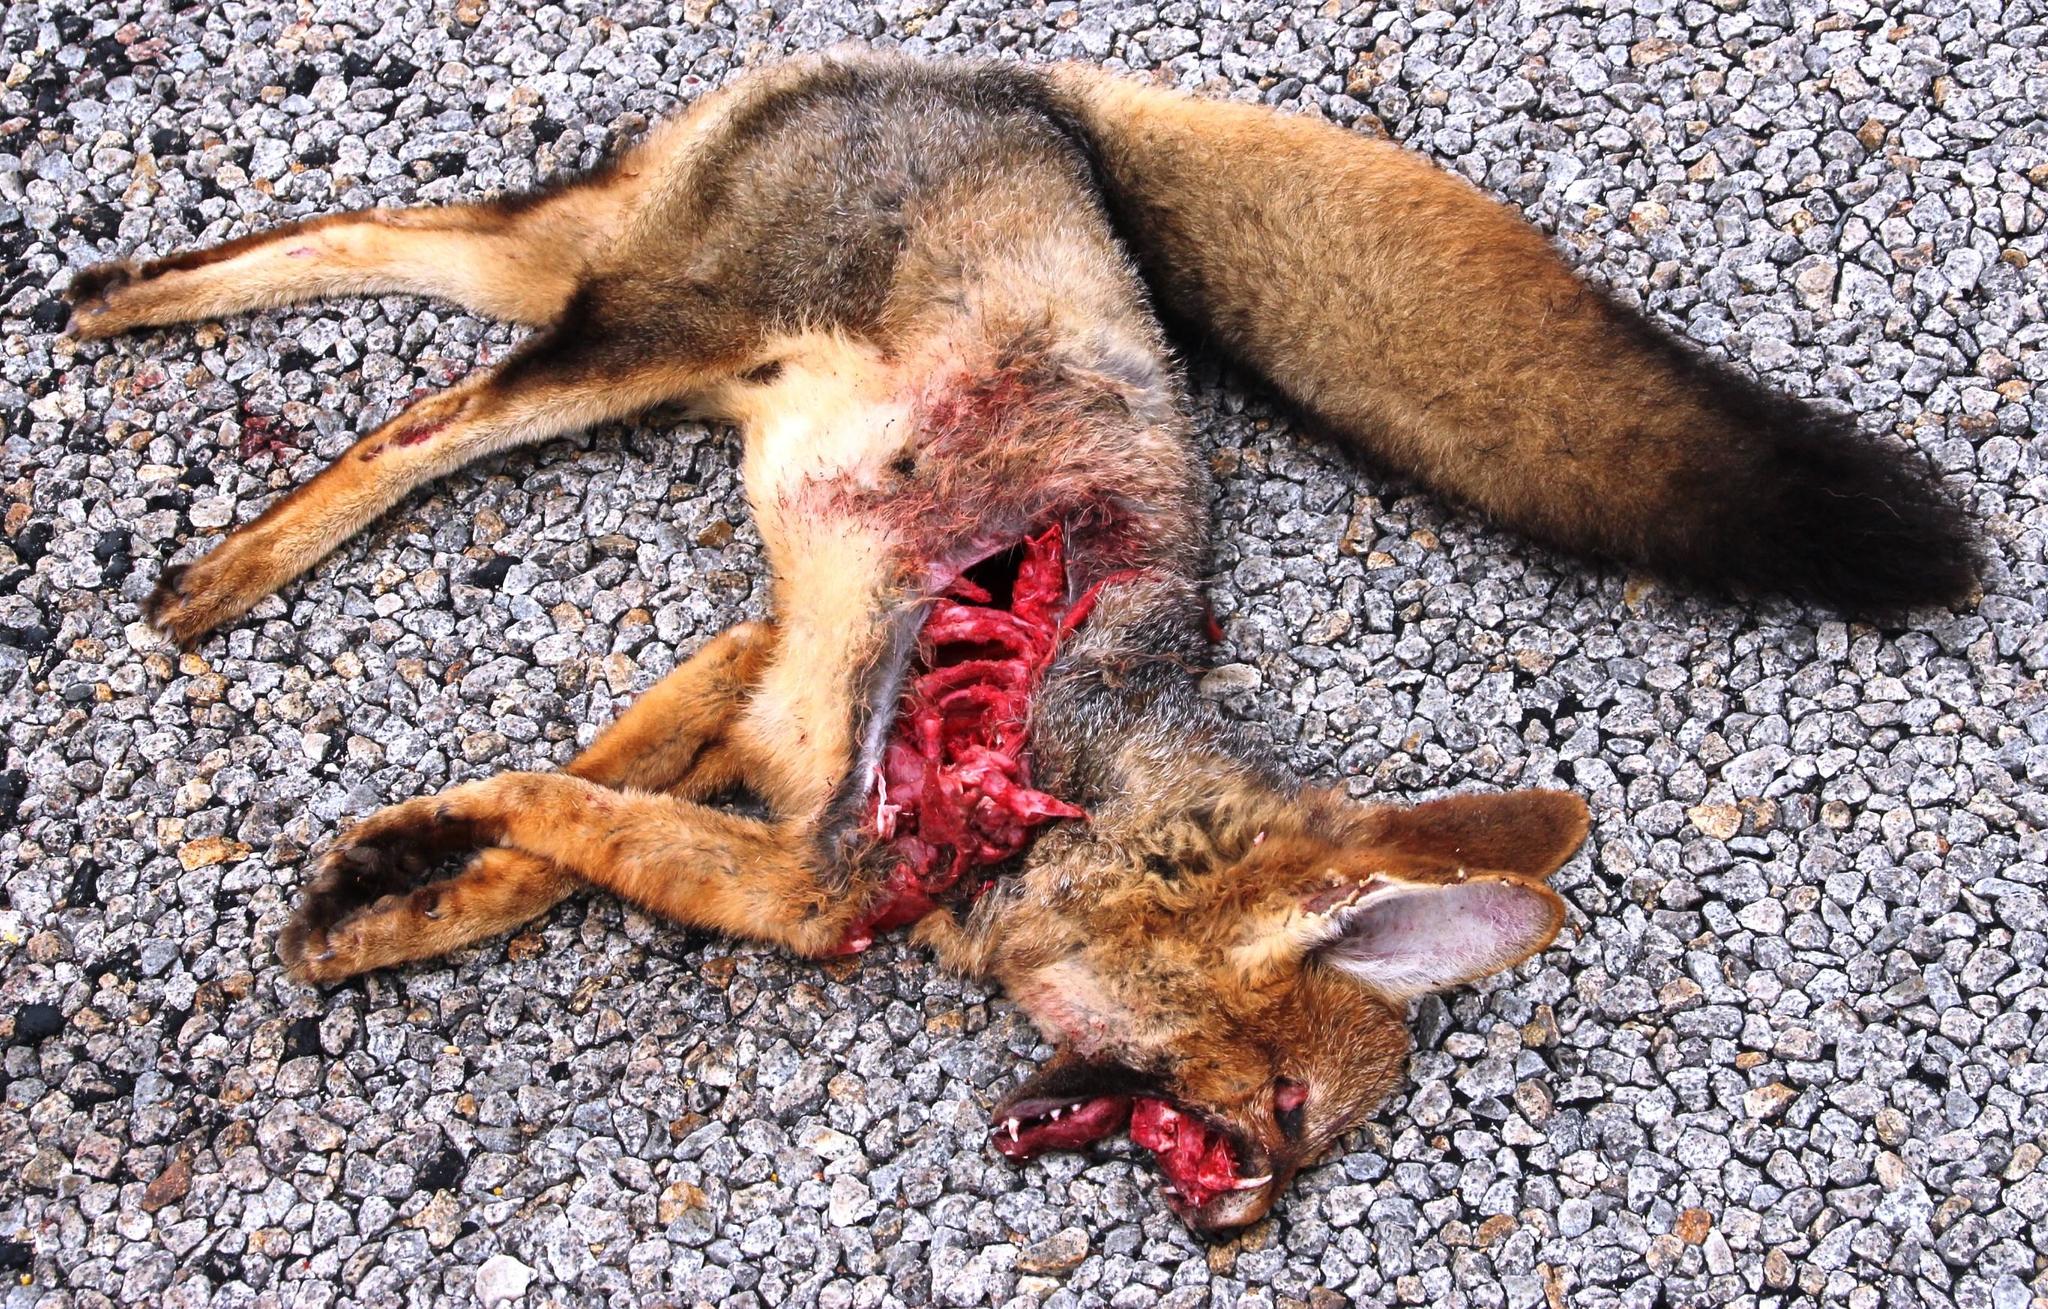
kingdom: Animalia
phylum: Chordata
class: Mammalia
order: Carnivora
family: Canidae
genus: Vulpes
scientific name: Vulpes chama
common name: Cape fox
